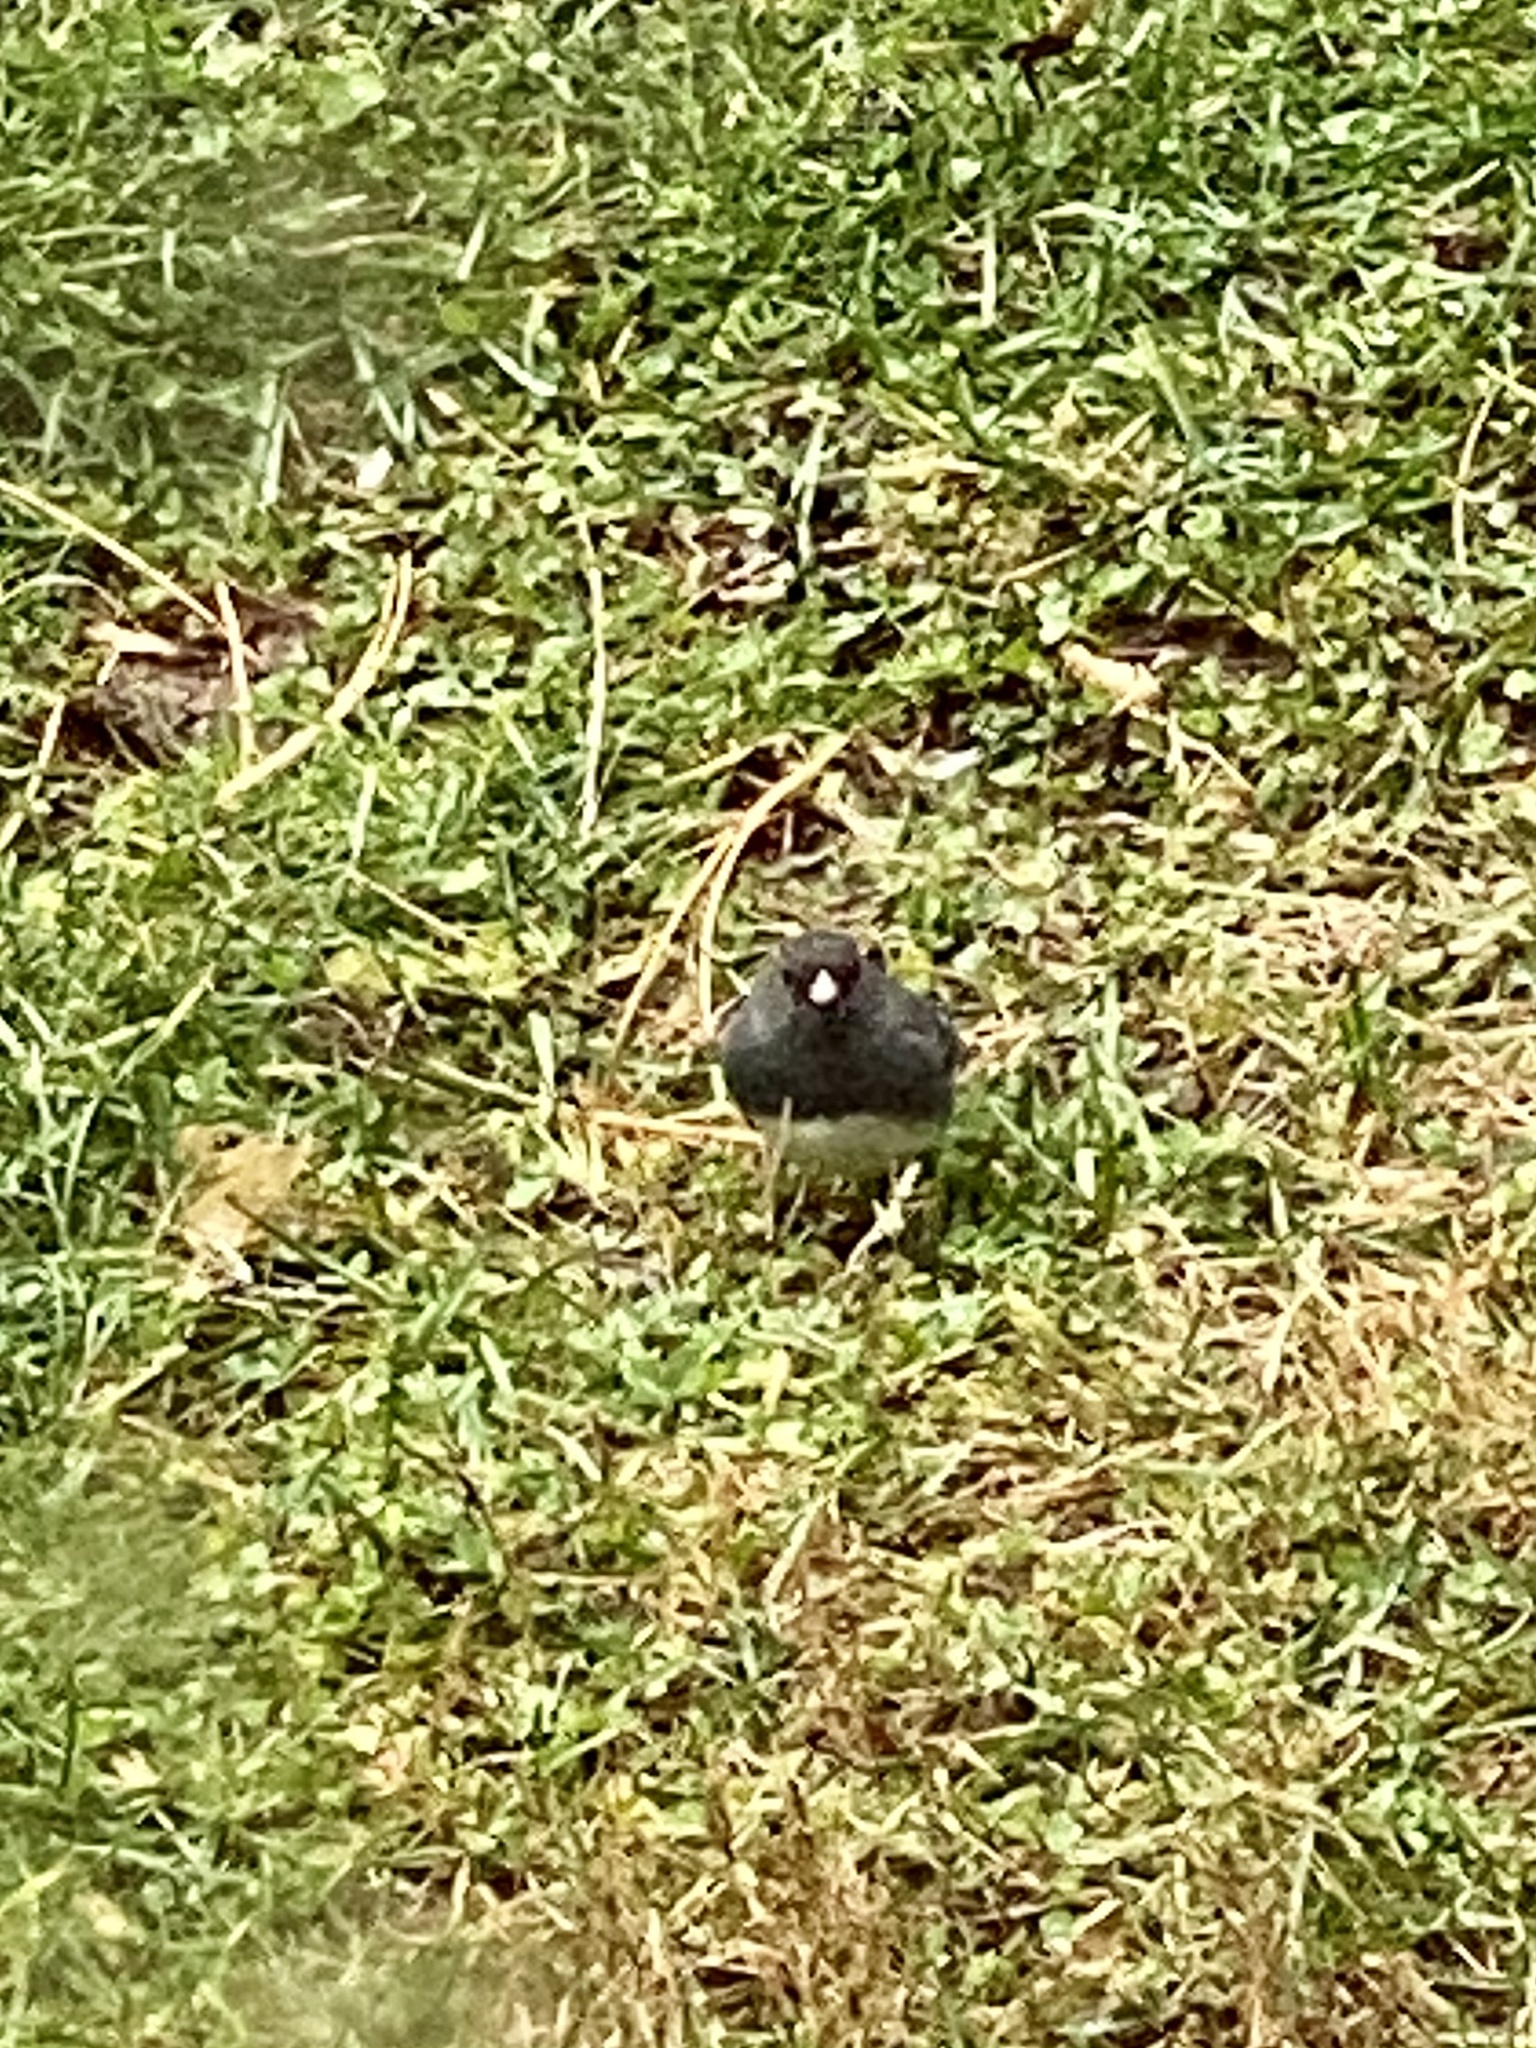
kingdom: Animalia
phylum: Chordata
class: Aves
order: Passeriformes
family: Passerellidae
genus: Junco
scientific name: Junco hyemalis
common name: Dark-eyed junco
